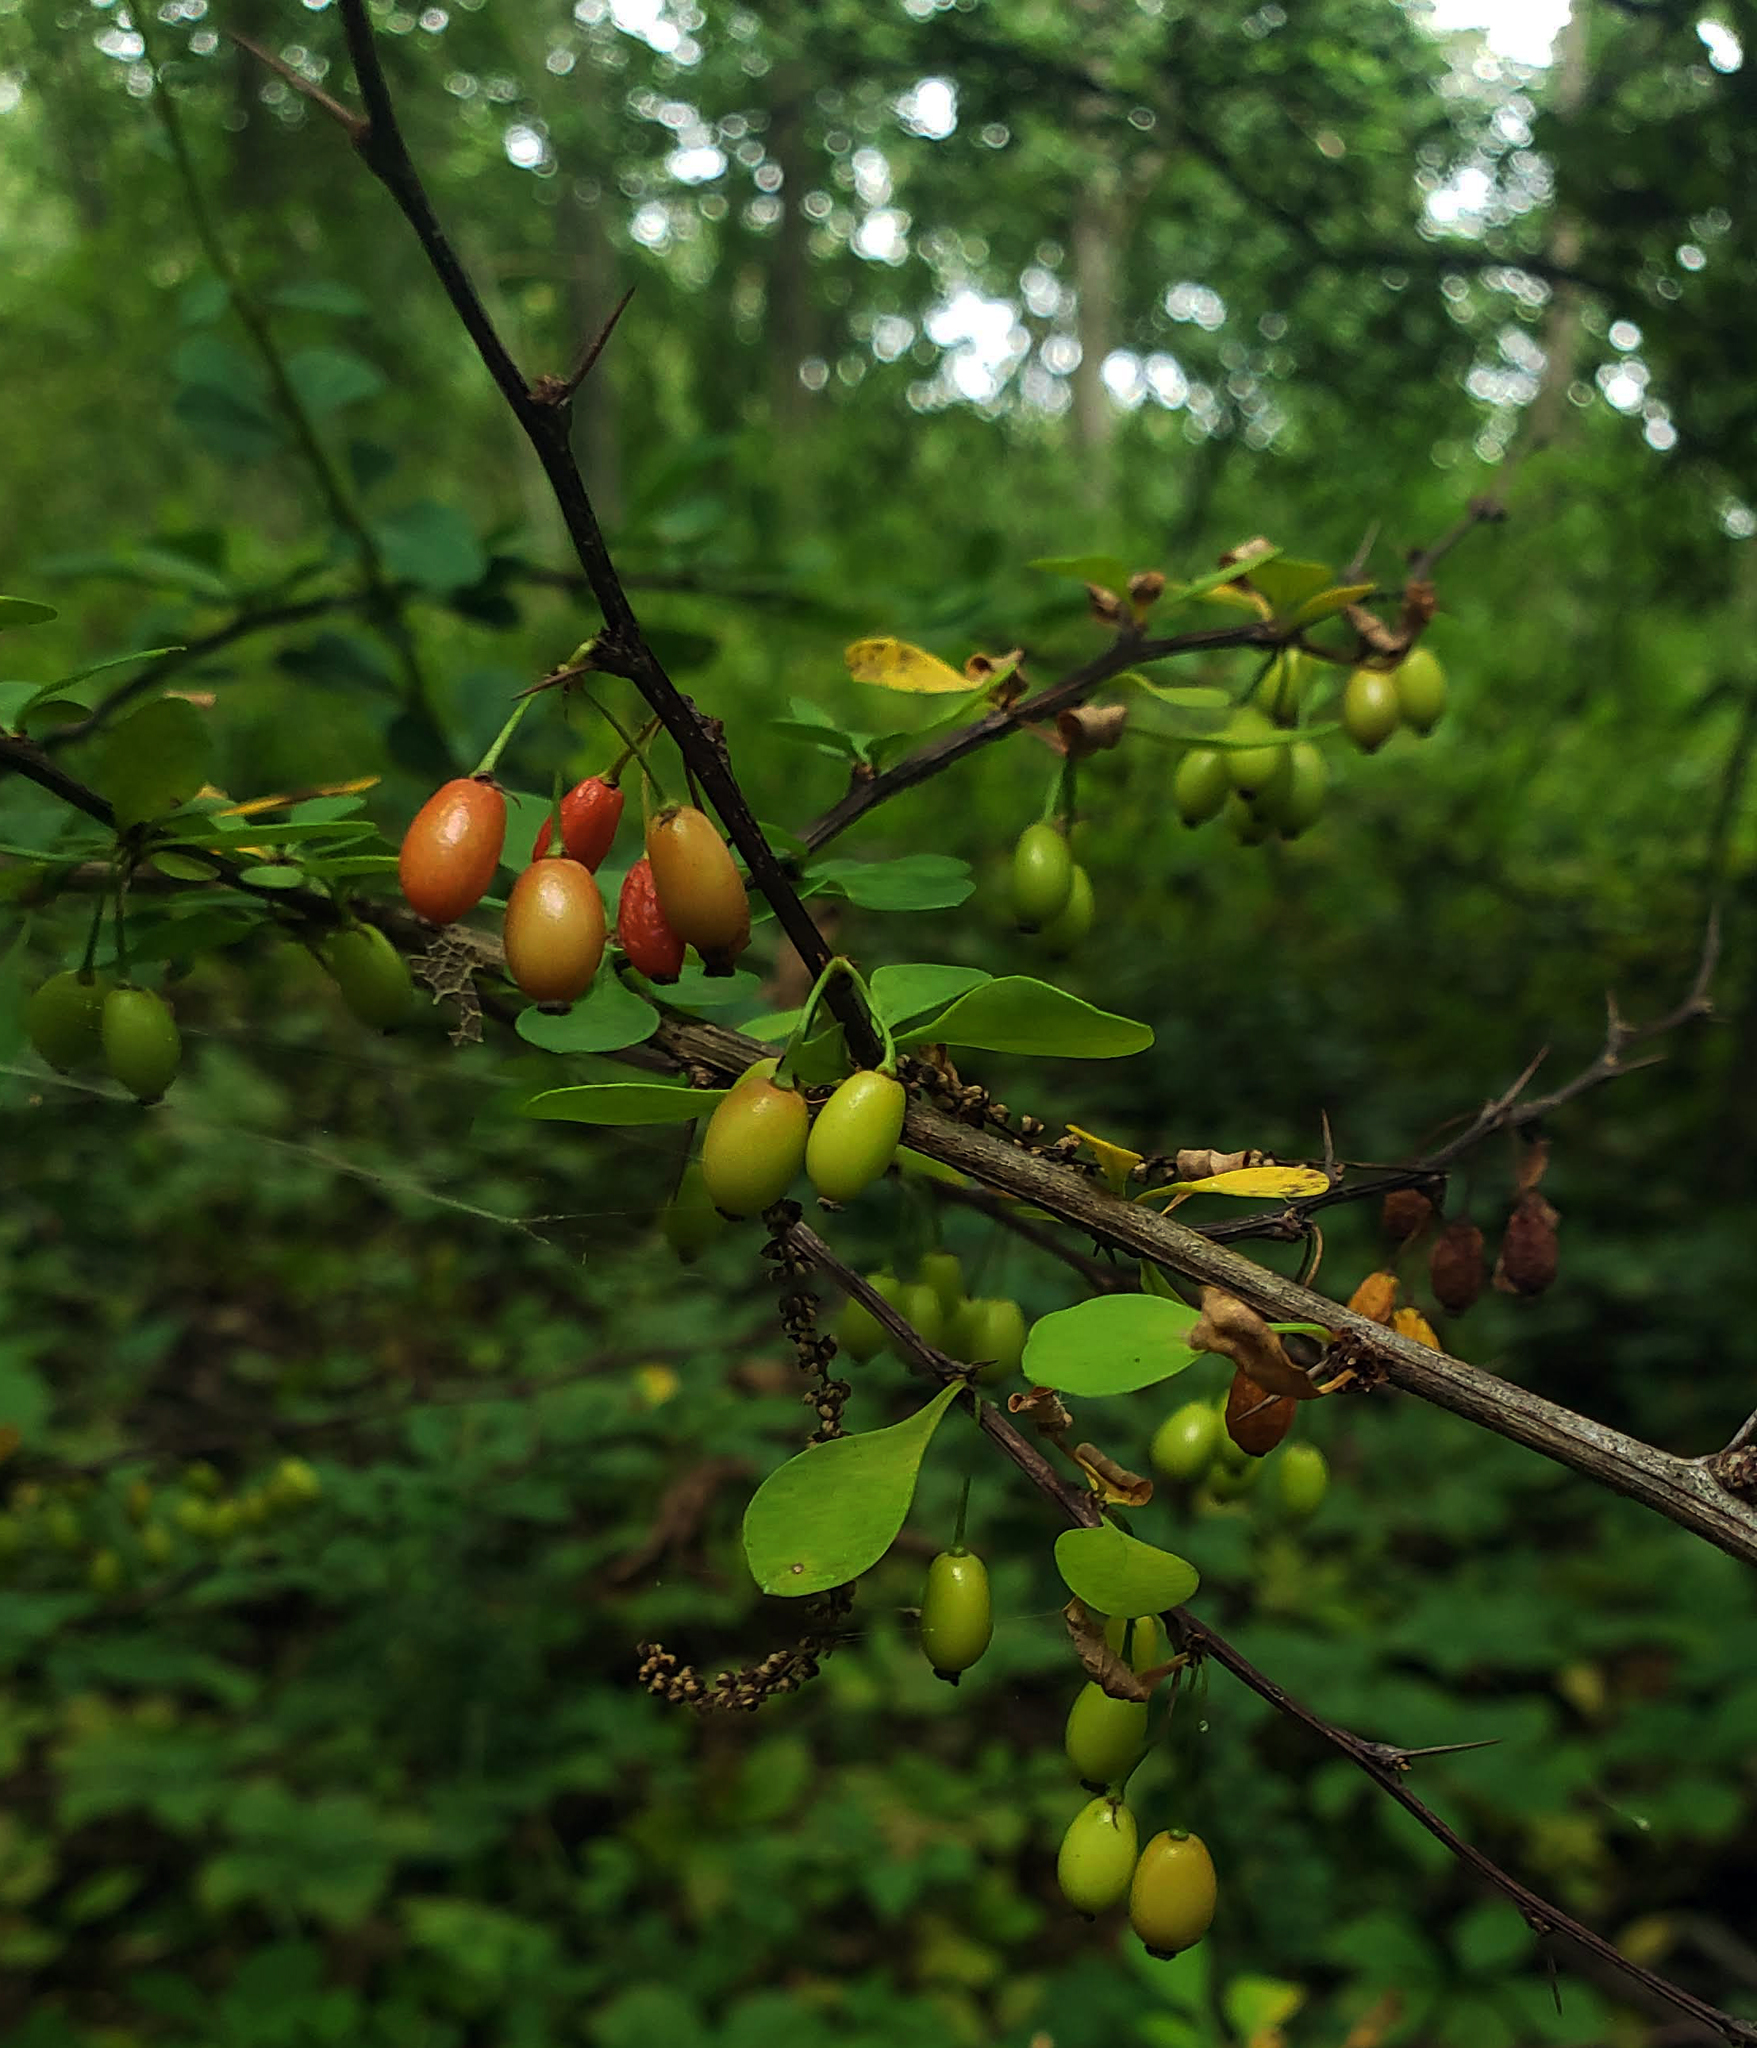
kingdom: Plantae
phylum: Tracheophyta
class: Magnoliopsida
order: Ranunculales
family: Berberidaceae
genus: Berberis
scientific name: Berberis thunbergii
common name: Japanese barberry
